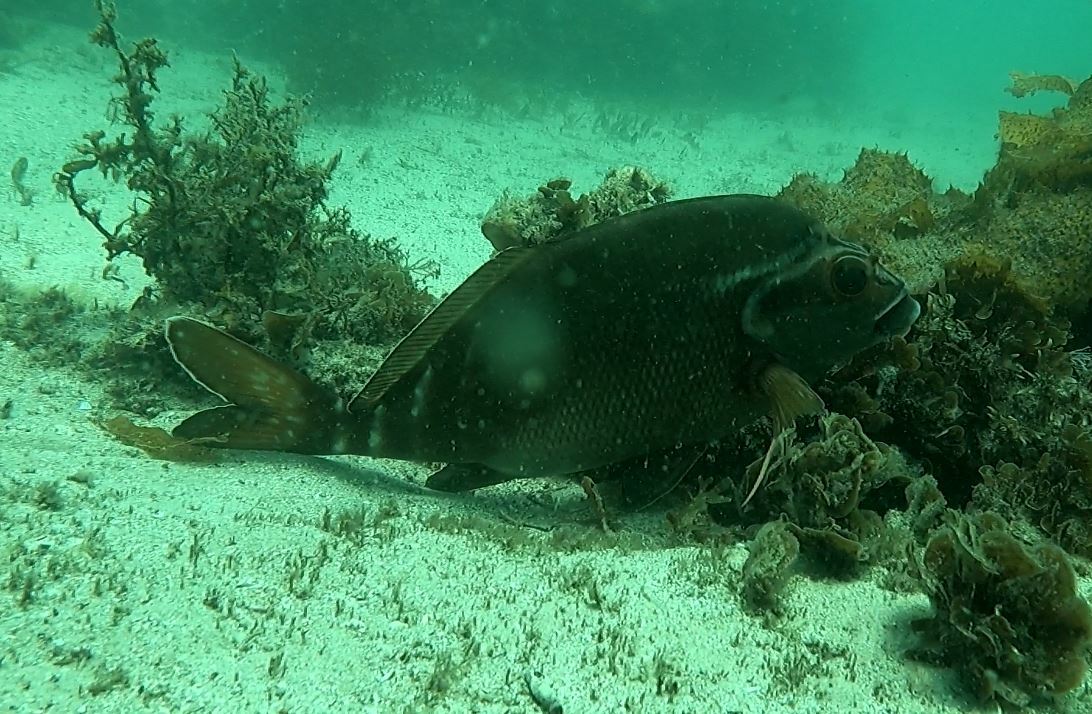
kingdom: Animalia
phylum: Chordata
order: Perciformes
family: Latridae
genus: Morwong
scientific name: Morwong fuscus
